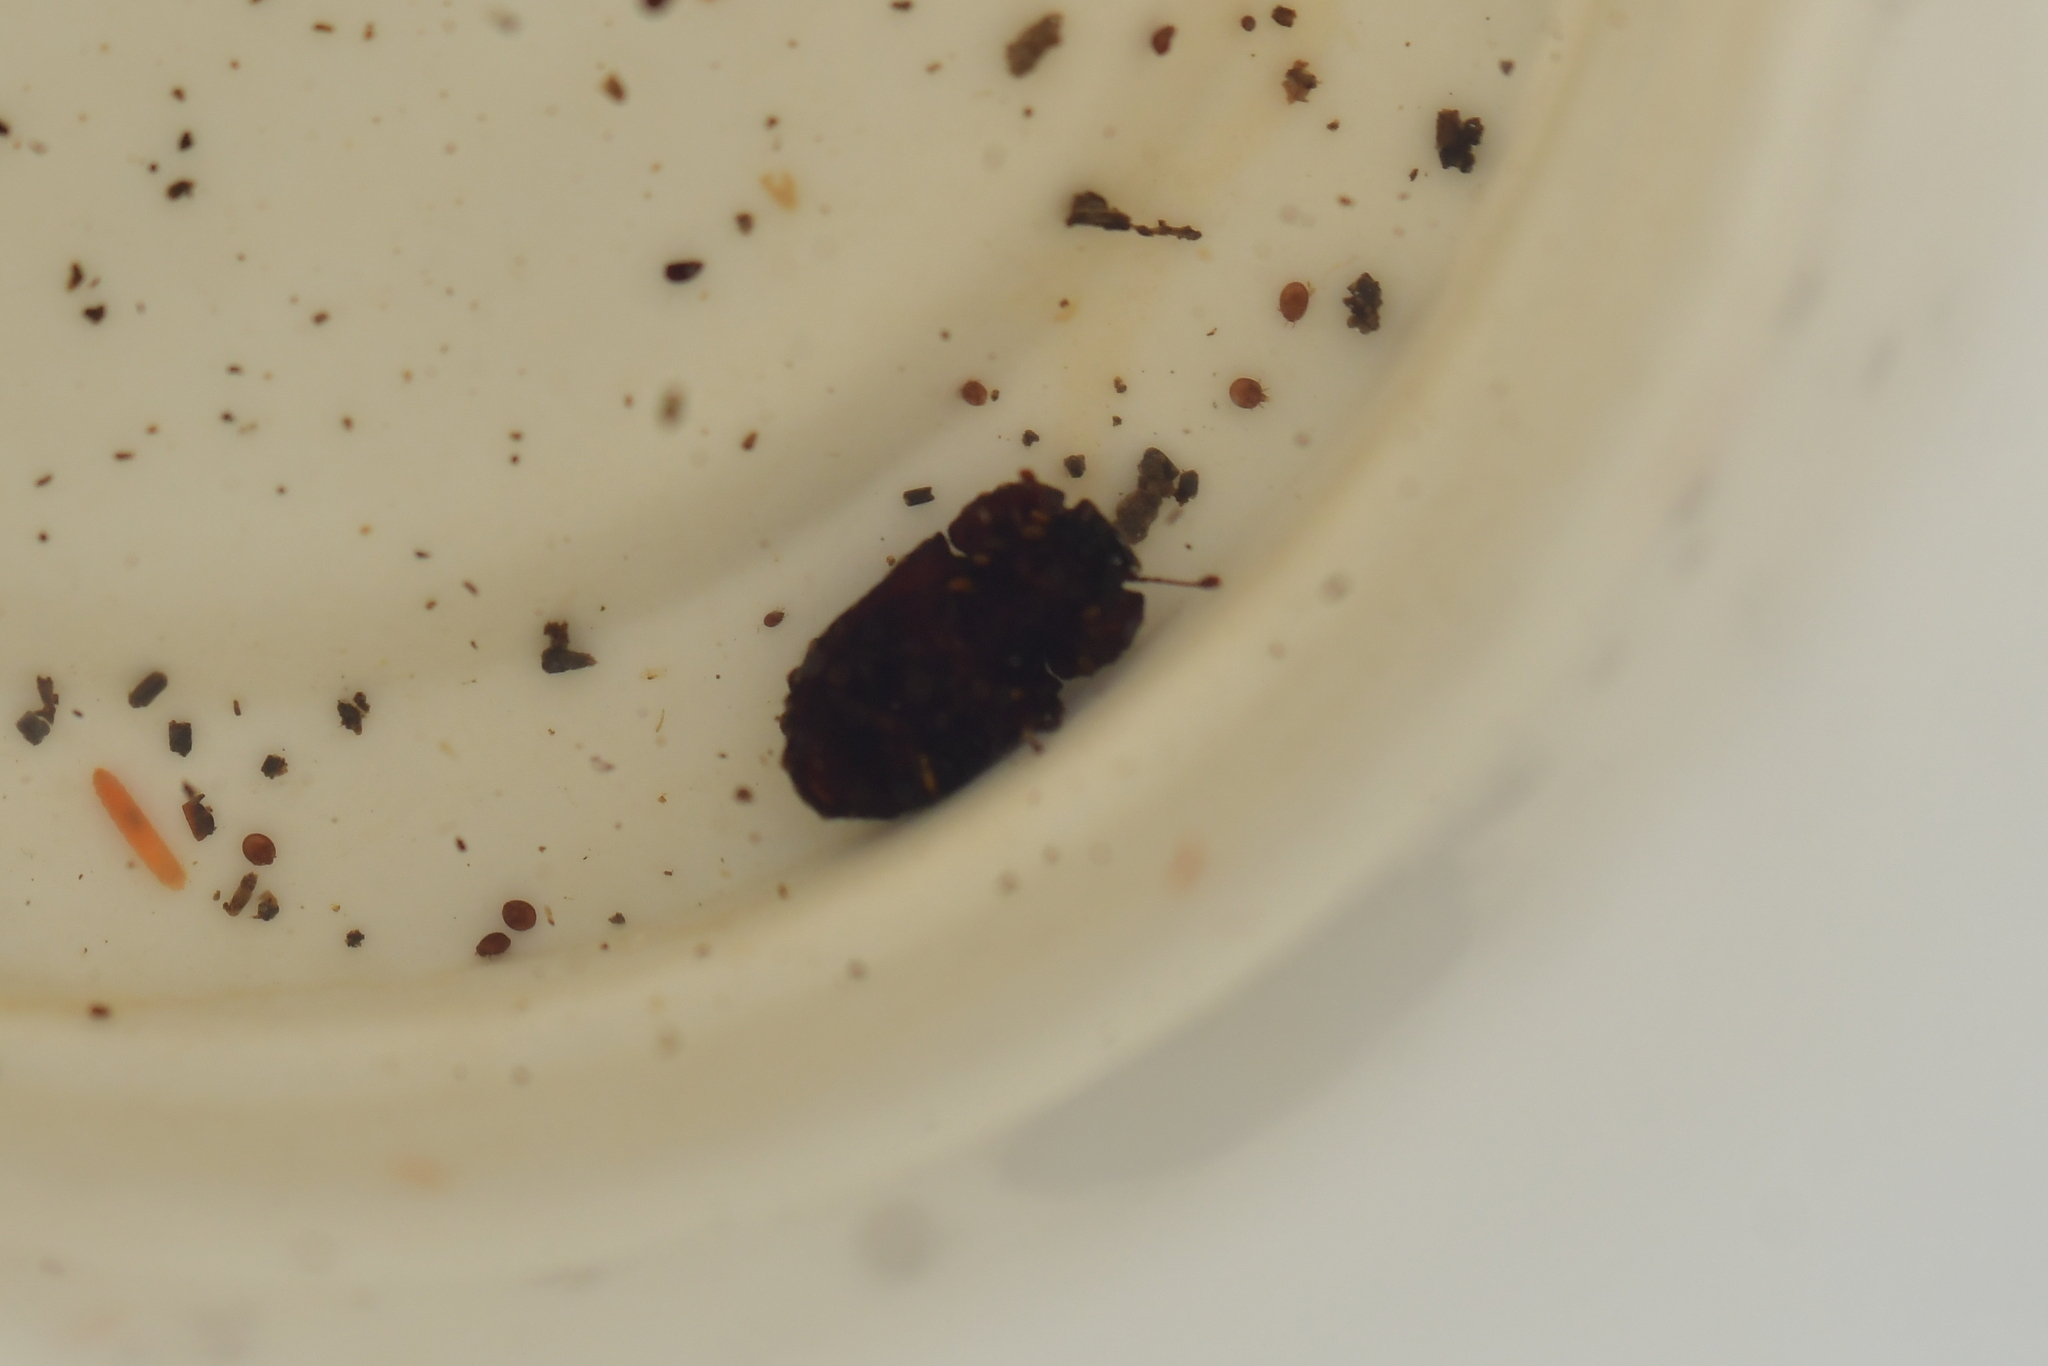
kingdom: Animalia
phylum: Arthropoda
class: Insecta
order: Coleoptera
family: Zopheridae
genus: Pristoderus
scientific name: Pristoderus
